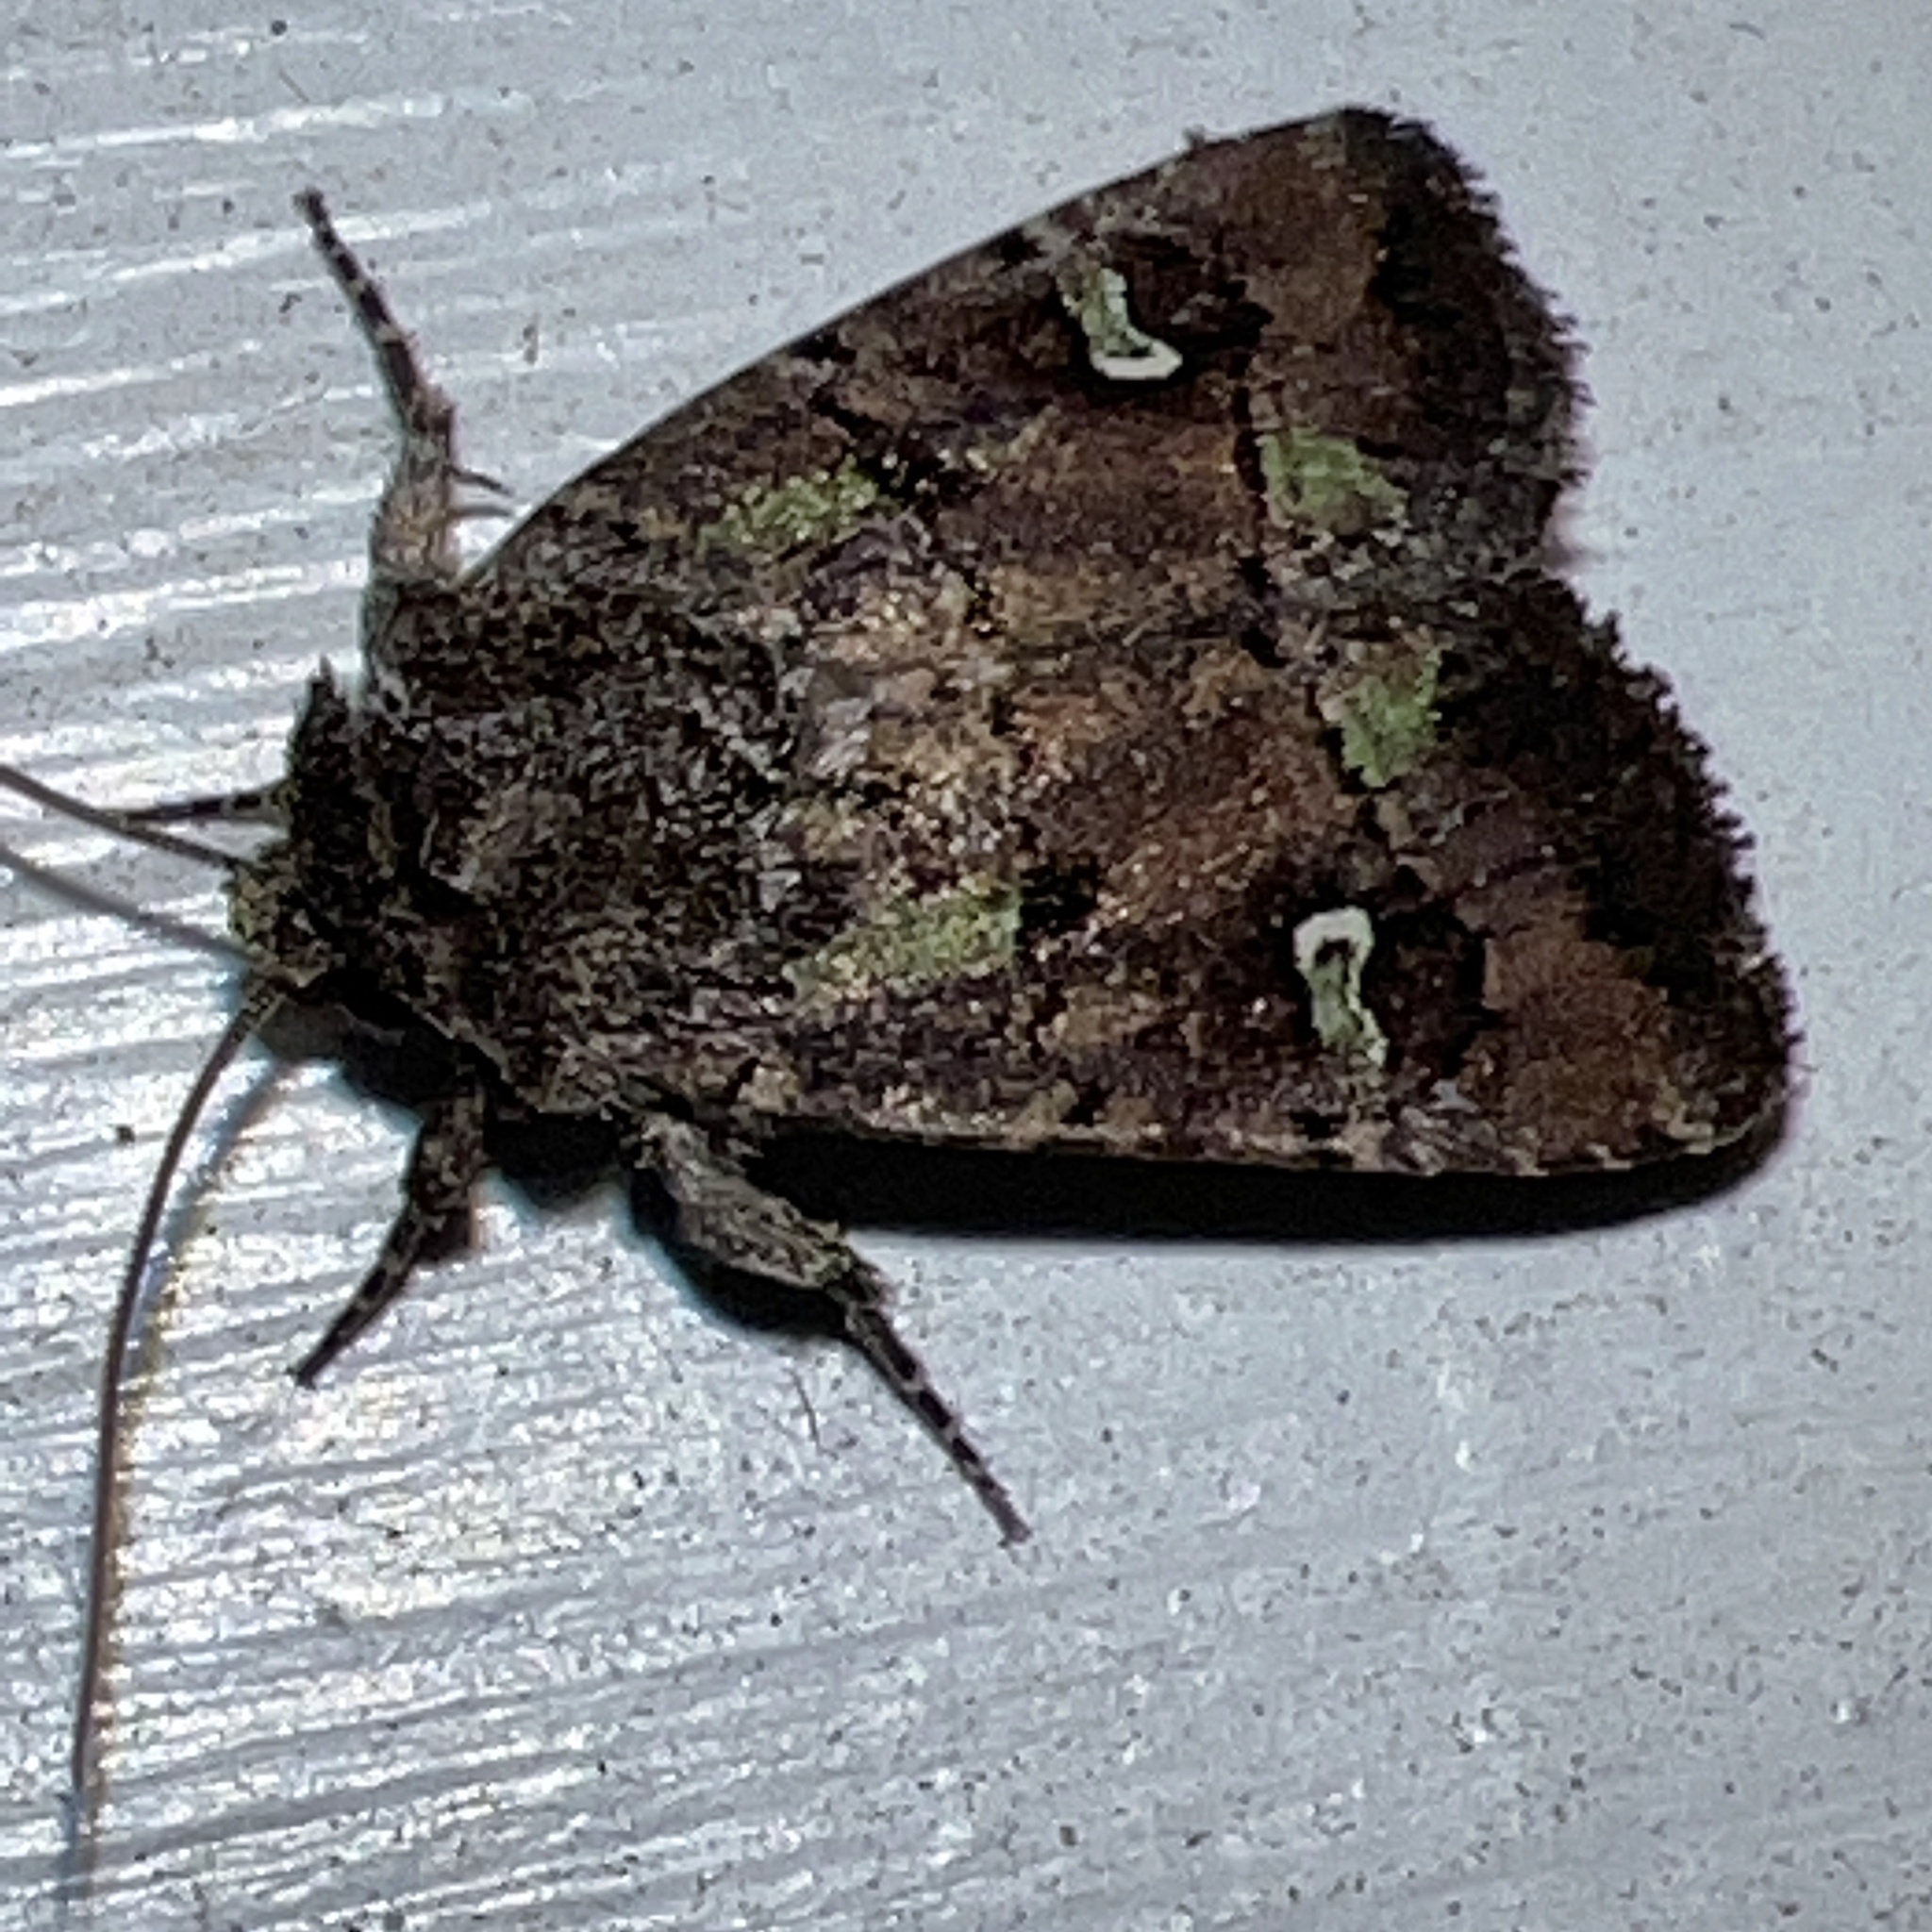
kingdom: Animalia
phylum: Arthropoda
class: Insecta
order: Lepidoptera
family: Noctuidae
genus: Lacinipolia
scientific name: Lacinipolia renigera
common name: Kidney-spotted minor
